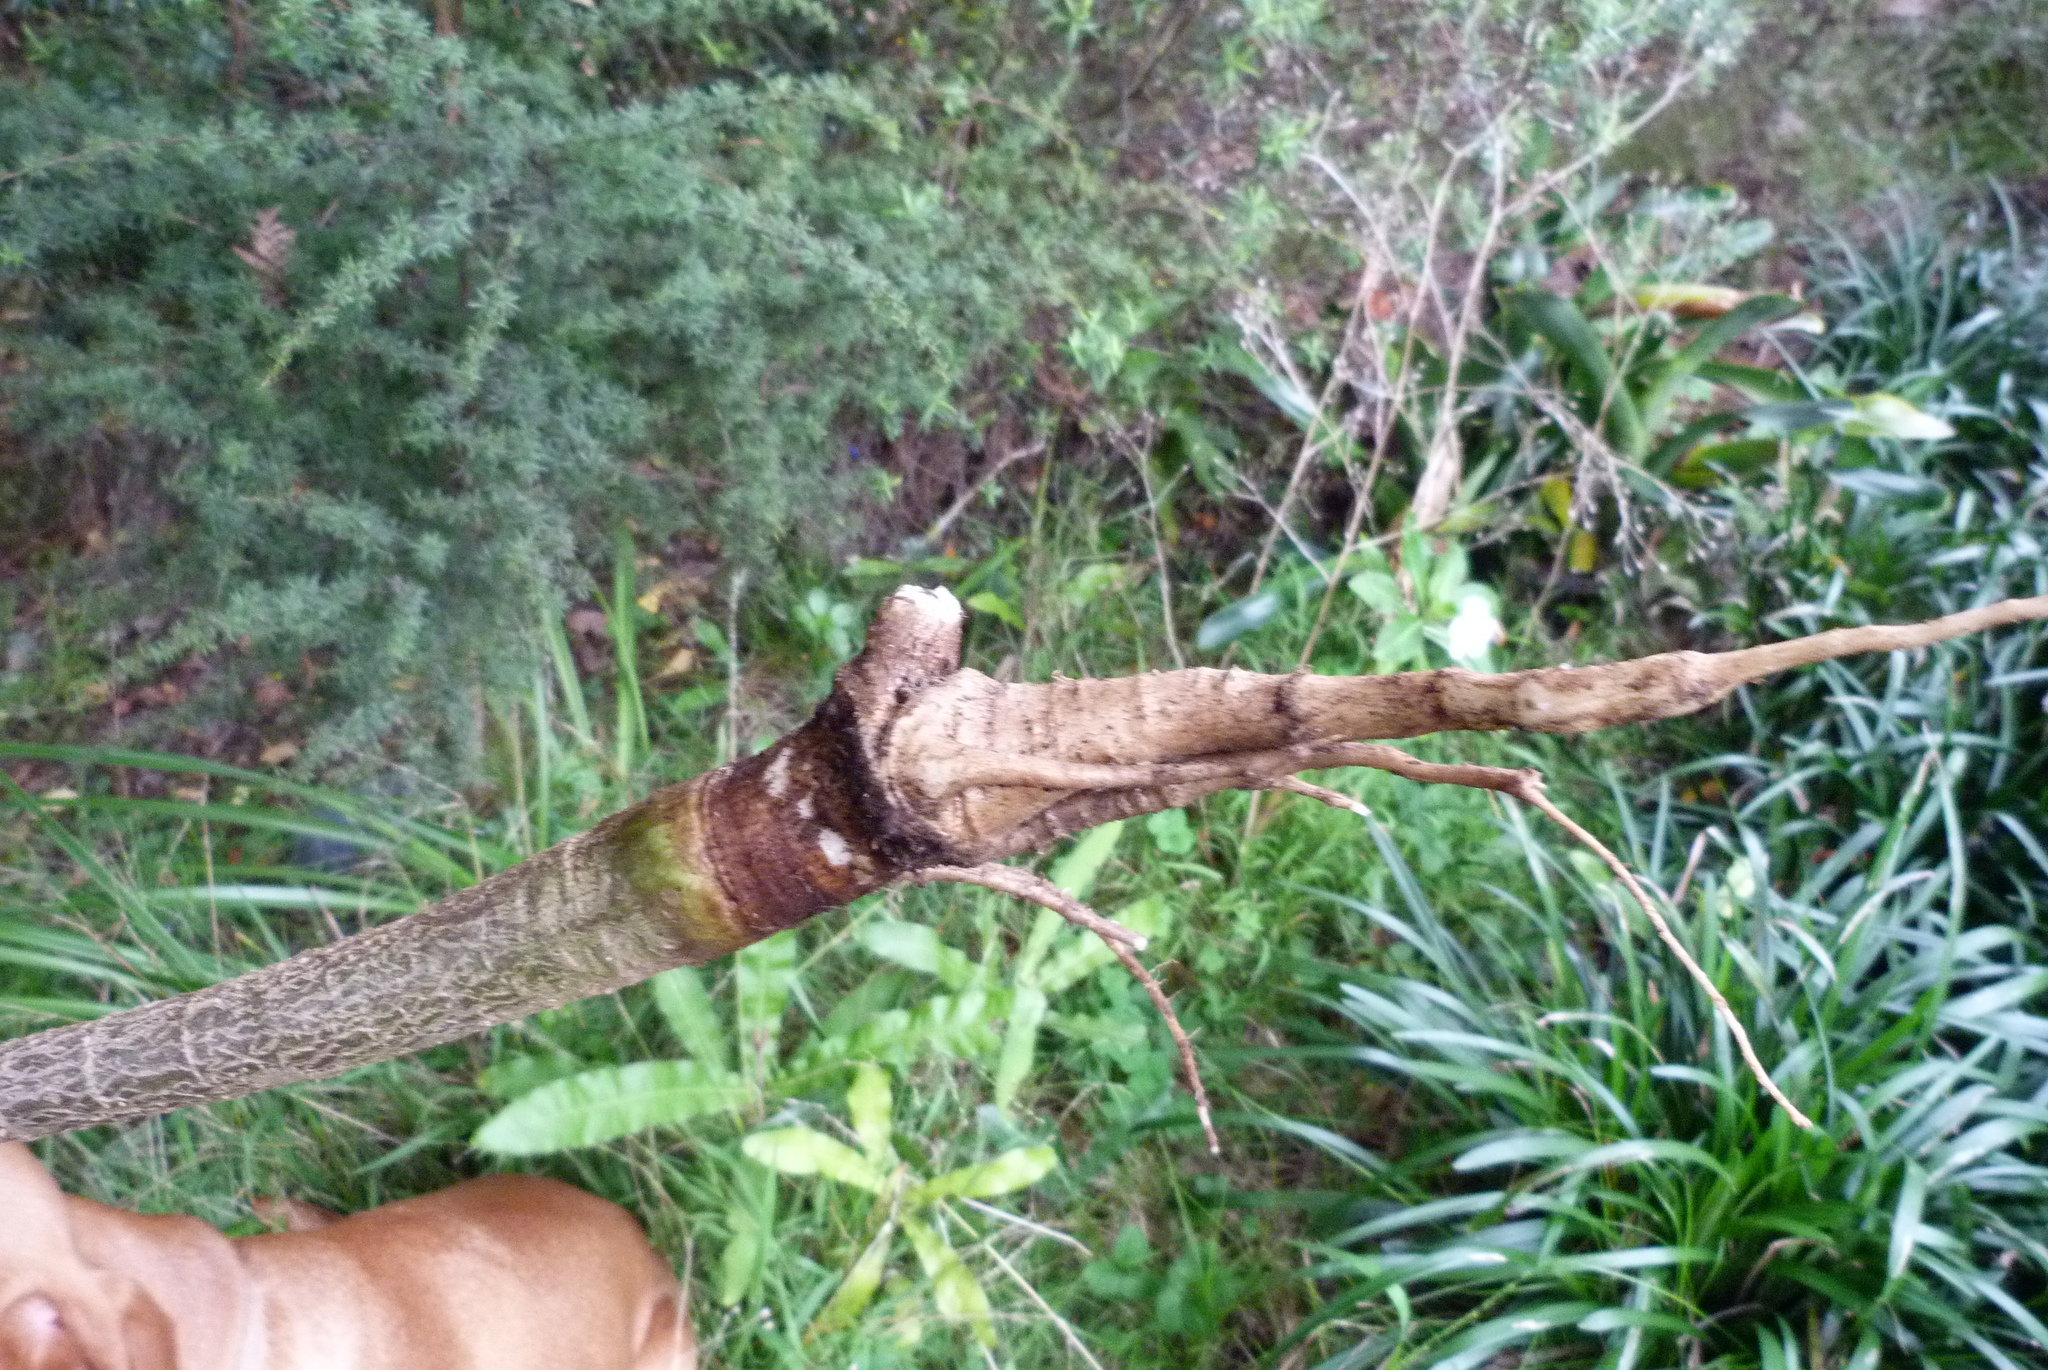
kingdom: Plantae
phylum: Tracheophyta
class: Magnoliopsida
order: Brassicales
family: Caricaceae
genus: Vasconcellea
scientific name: Vasconcellea pubescens
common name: Mountain papaya
